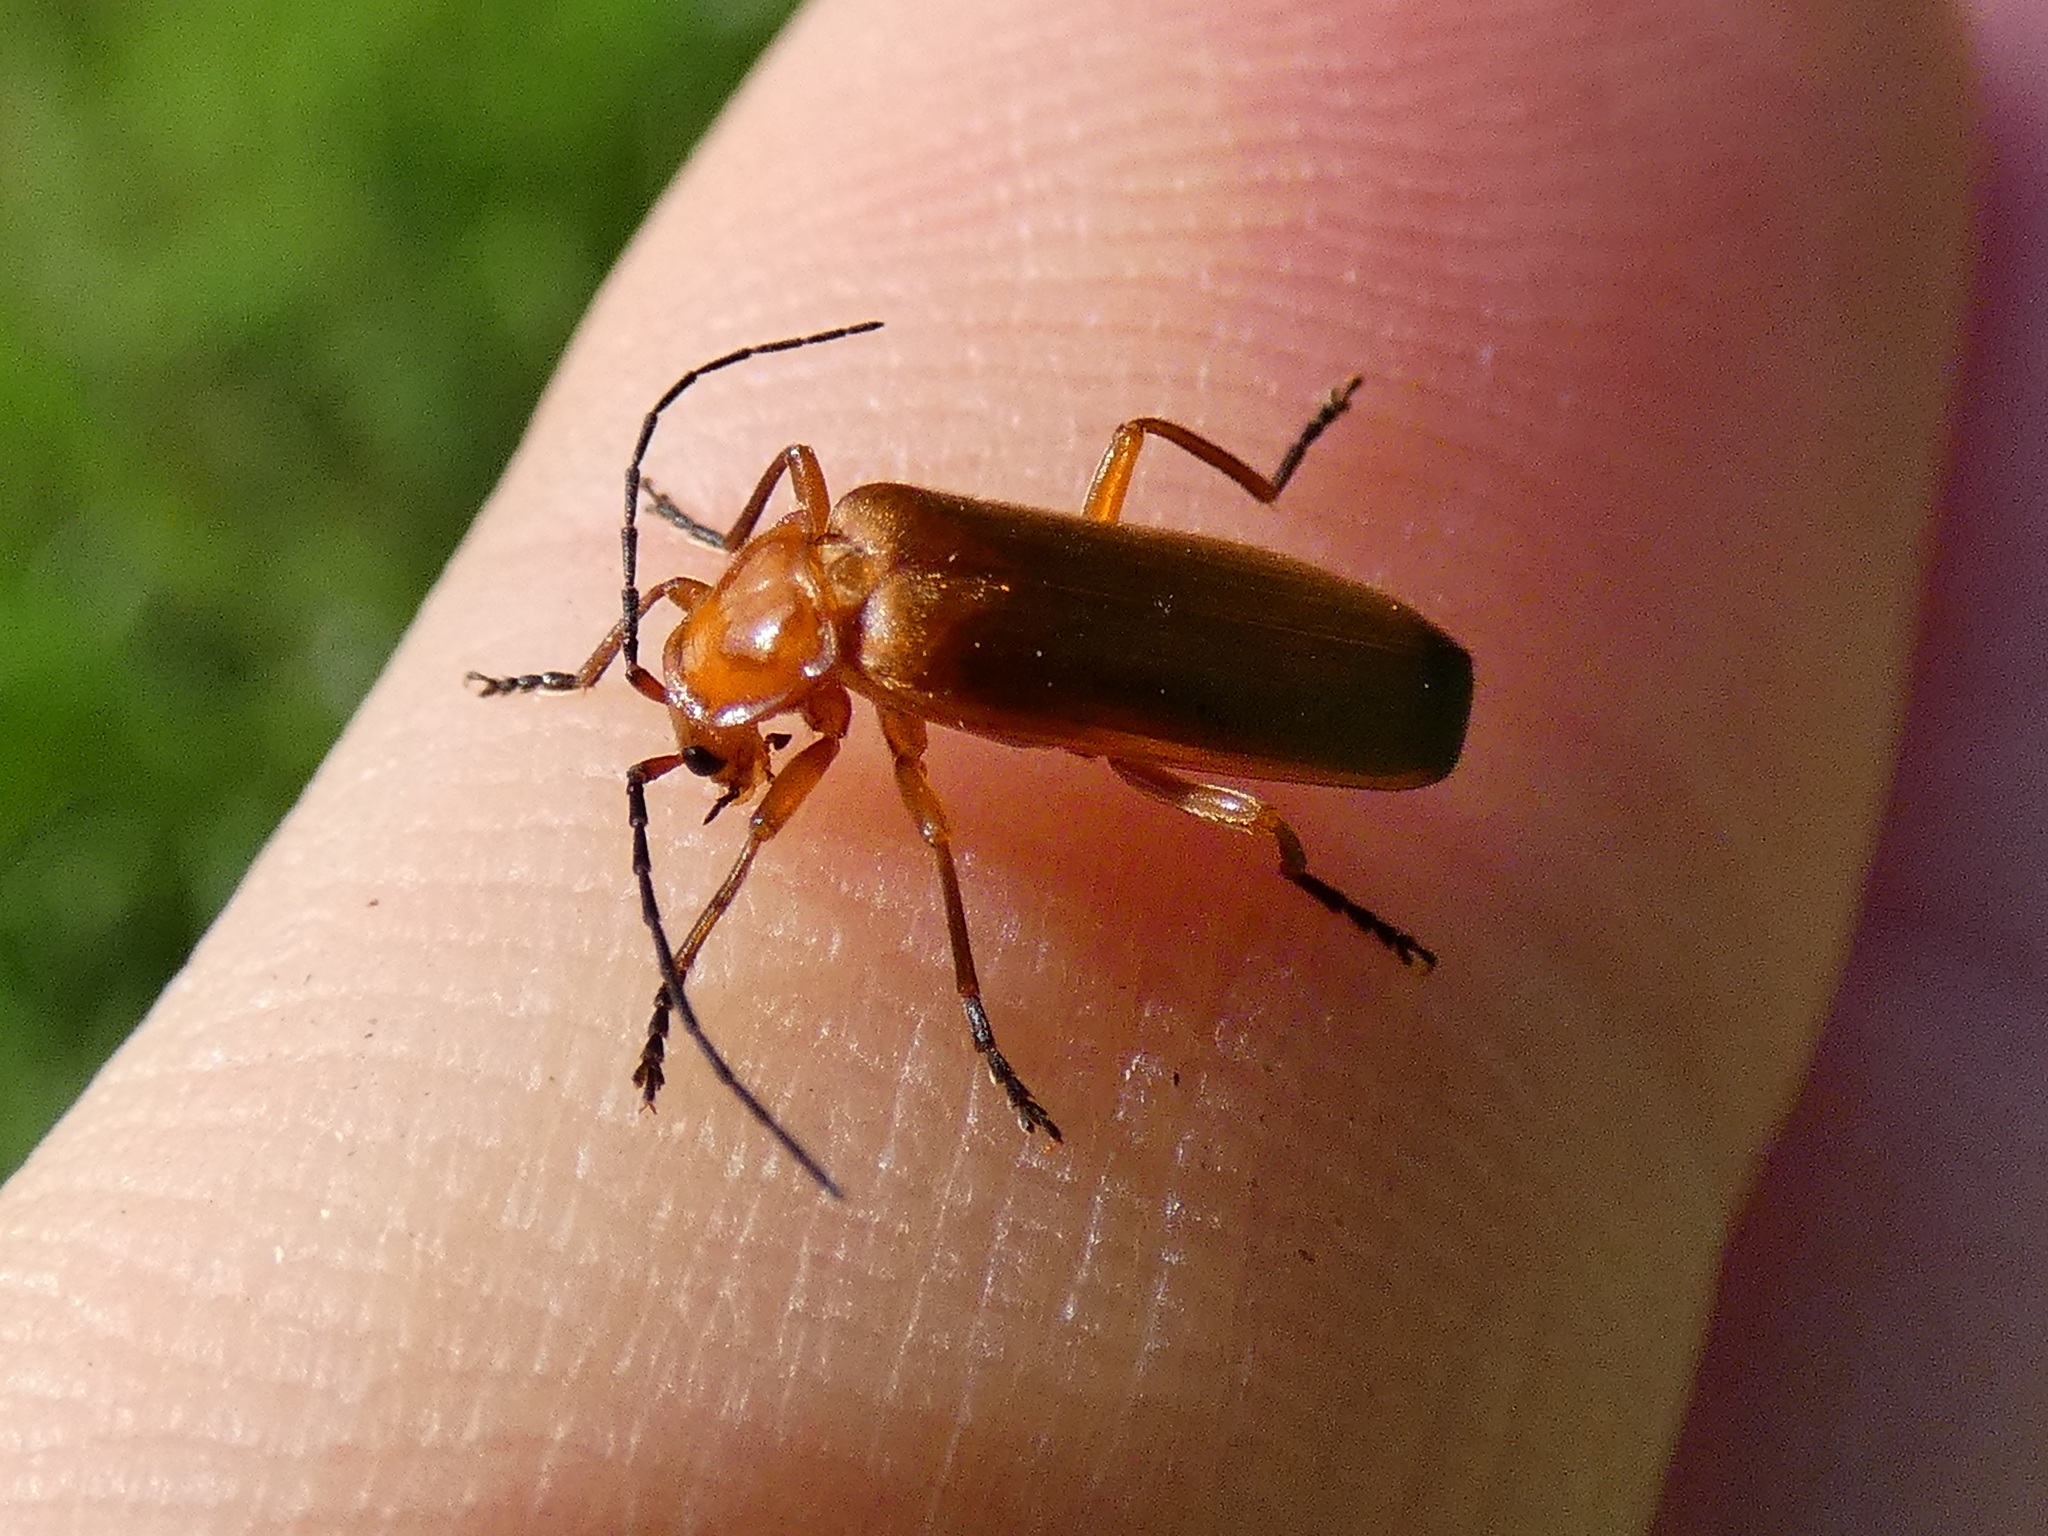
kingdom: Animalia
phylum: Arthropoda
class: Insecta
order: Coleoptera
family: Cantharidae
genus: Rhagonycha
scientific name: Rhagonycha fulva
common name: Common red soldier beetle
